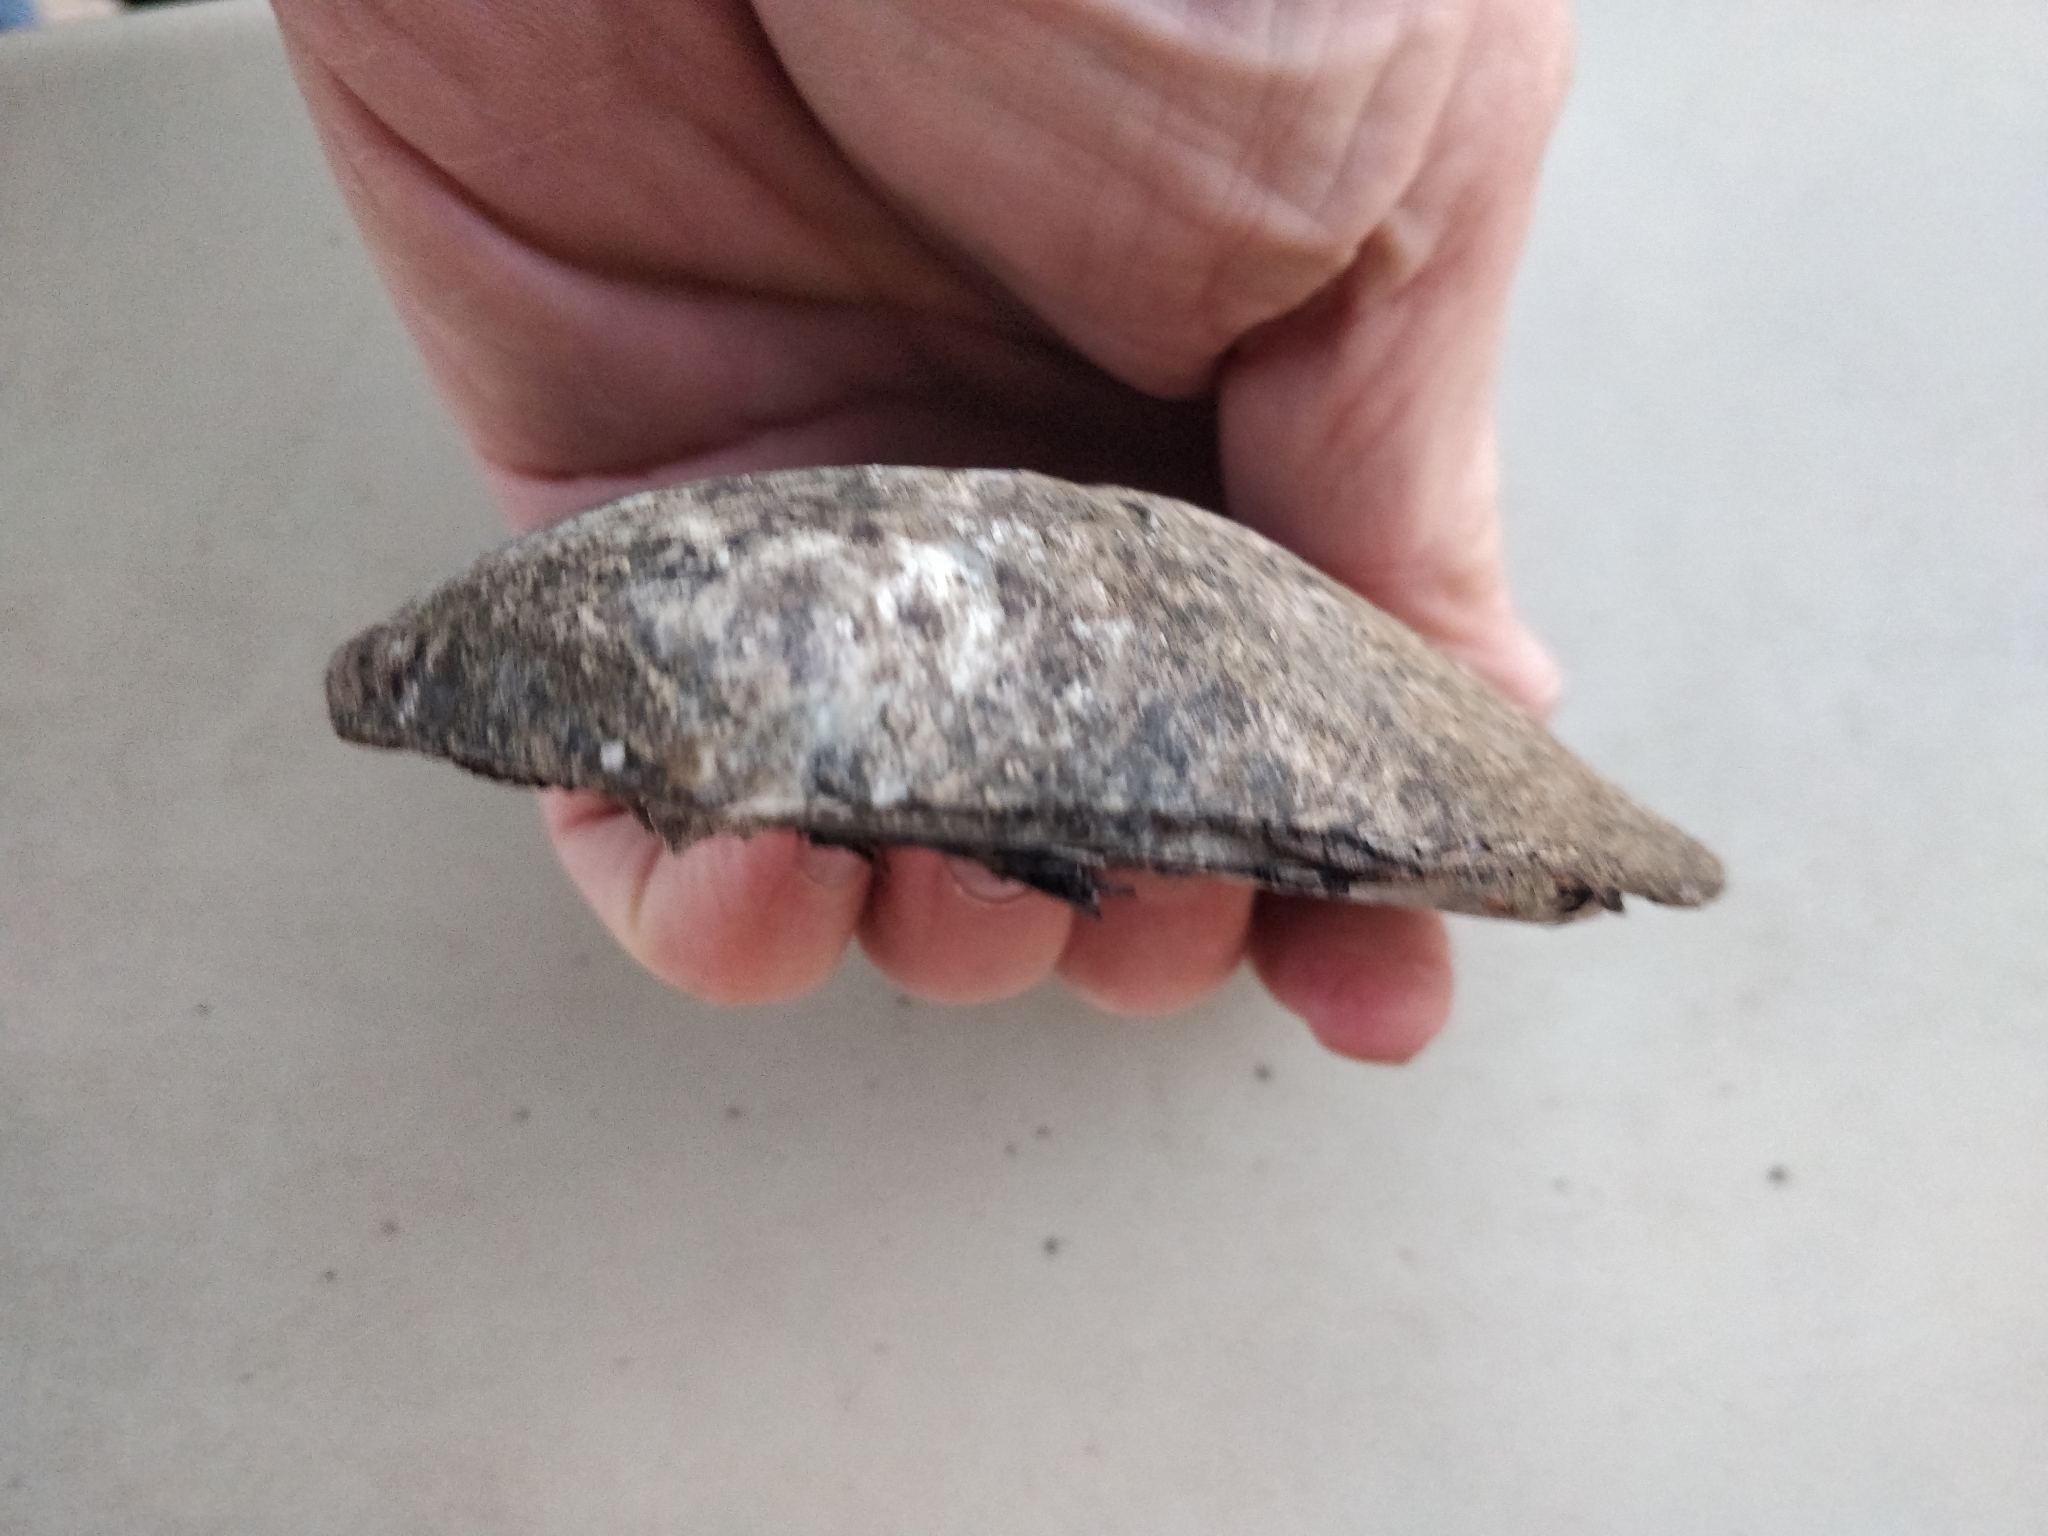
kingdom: Animalia
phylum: Mollusca
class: Bivalvia
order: Unionida
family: Unionidae
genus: Amblema
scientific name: Amblema plicata
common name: Threeridge
